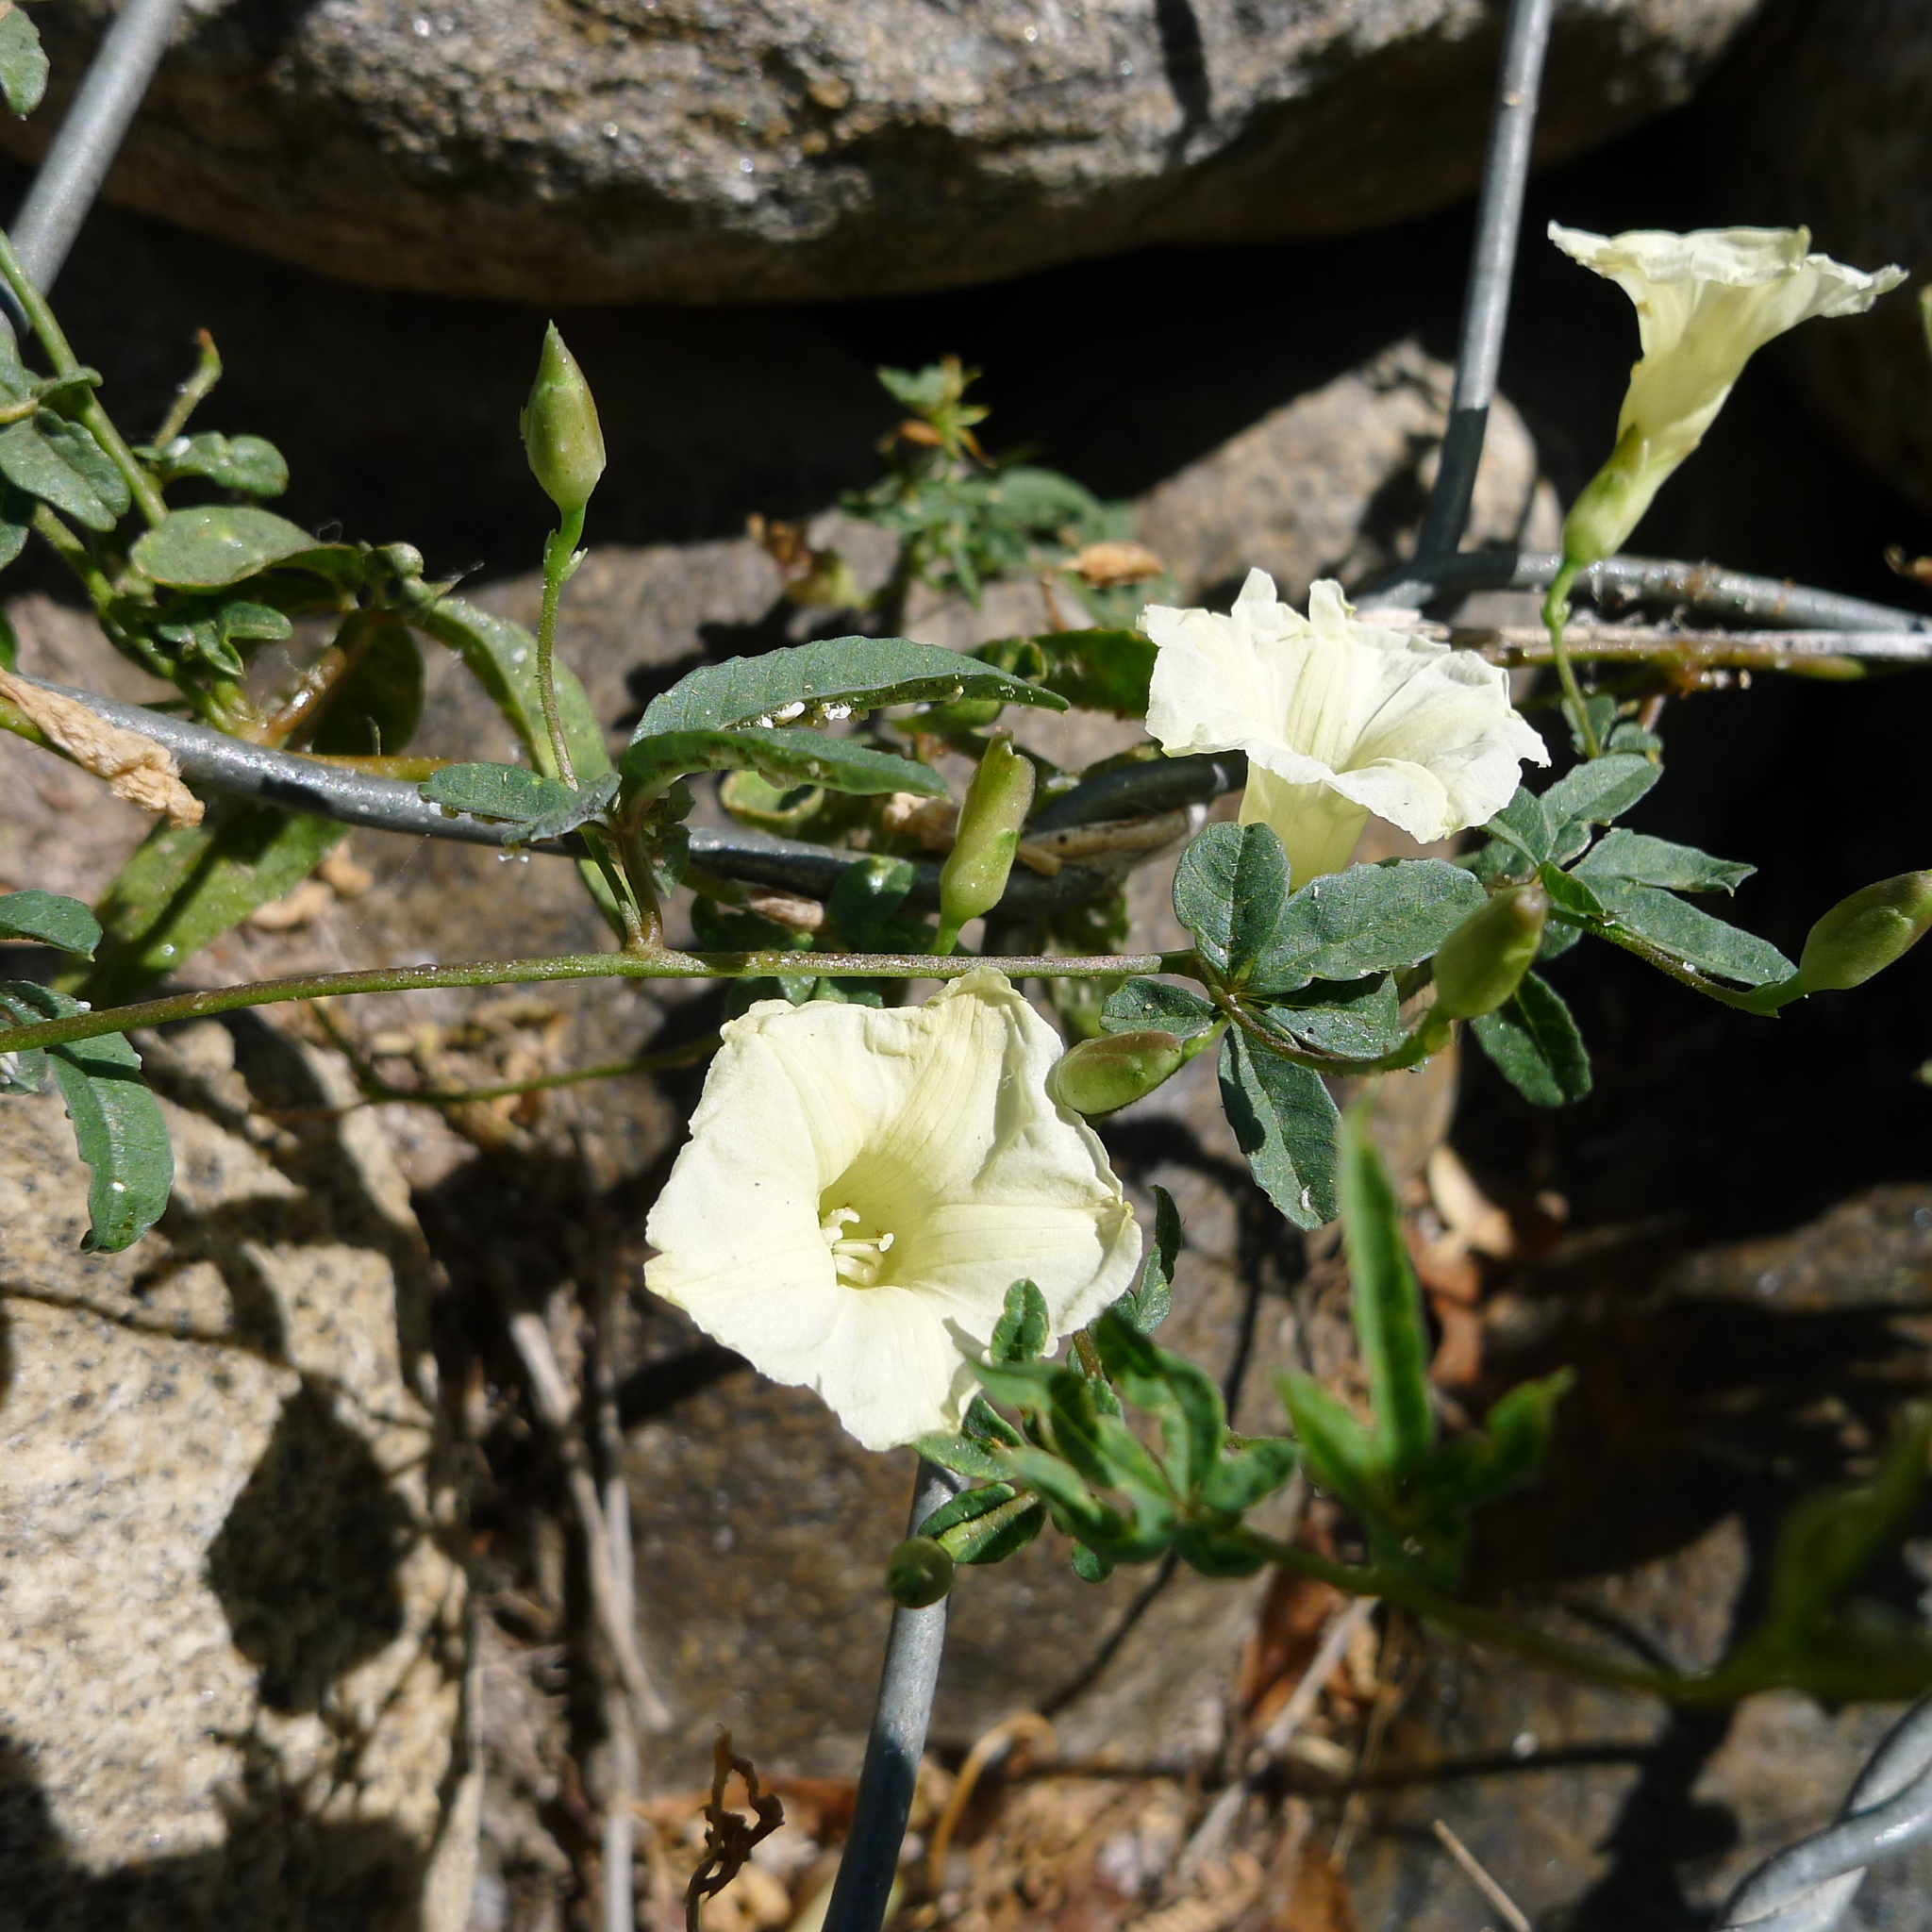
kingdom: Plantae
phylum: Tracheophyta
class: Magnoliopsida
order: Solanales
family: Convolvulaceae
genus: Distimake
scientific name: Distimake quinquefolius
